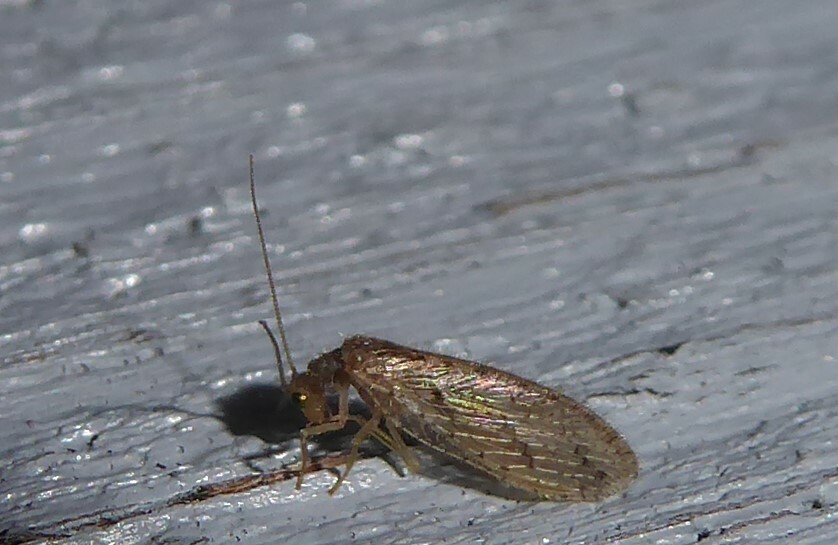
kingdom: Animalia
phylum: Arthropoda
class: Insecta
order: Neuroptera
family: Hemerobiidae
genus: Micromus
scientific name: Micromus tasmaniae
